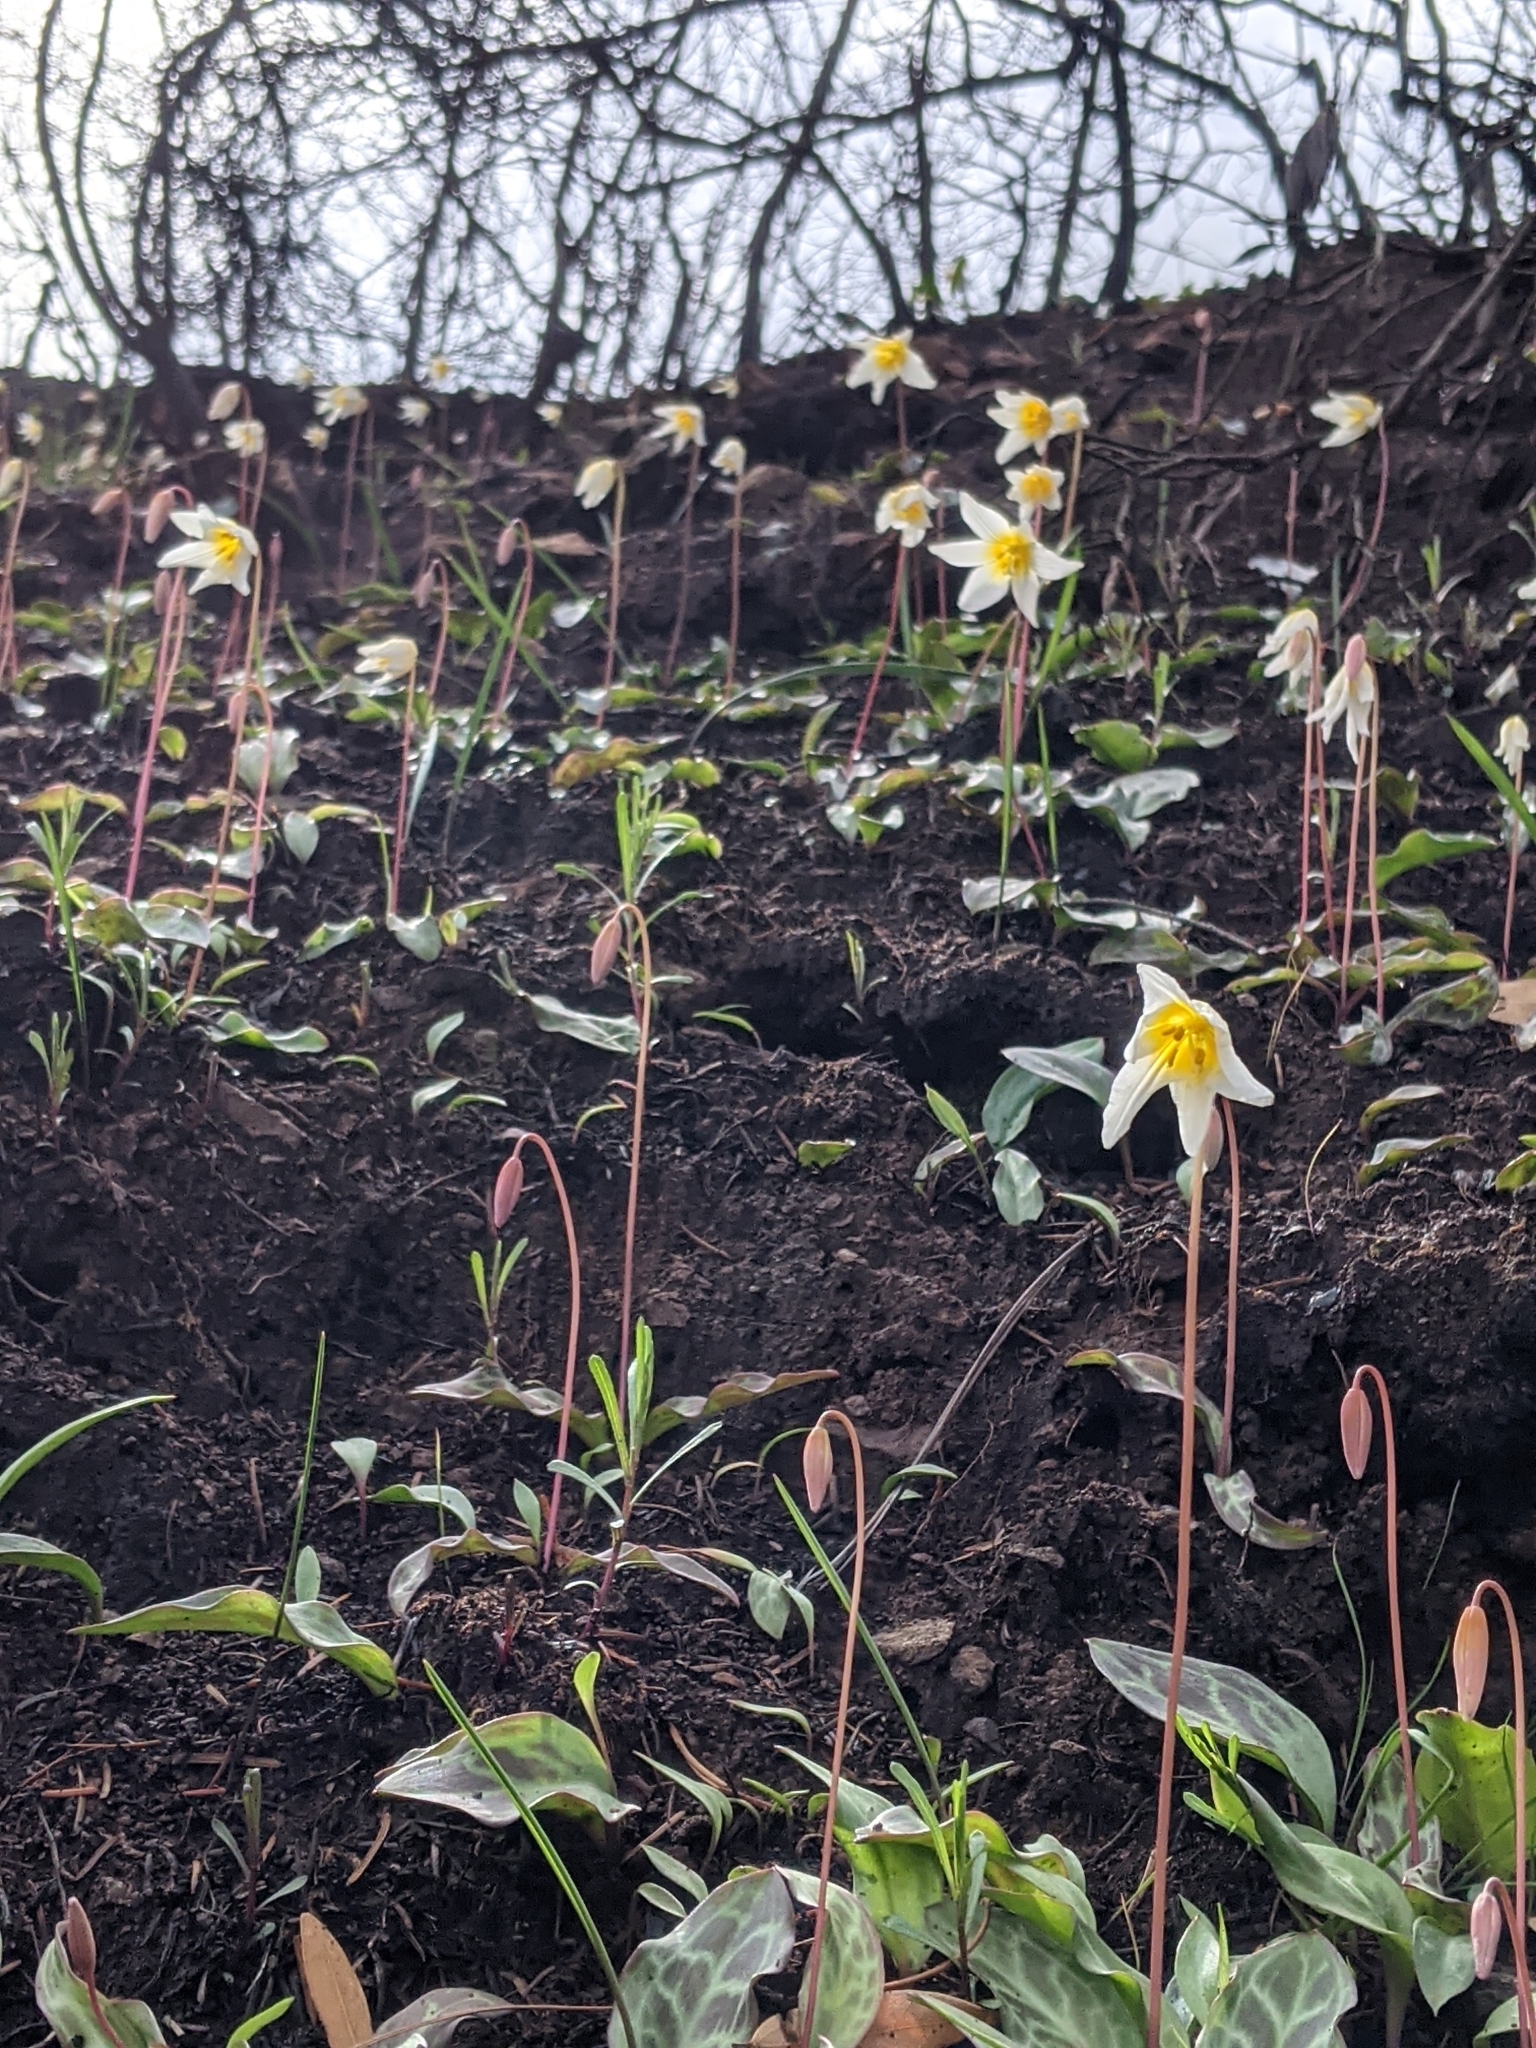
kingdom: Plantae
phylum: Tracheophyta
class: Liliopsida
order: Liliales
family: Liliaceae
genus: Erythronium
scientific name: Erythronium helenae
